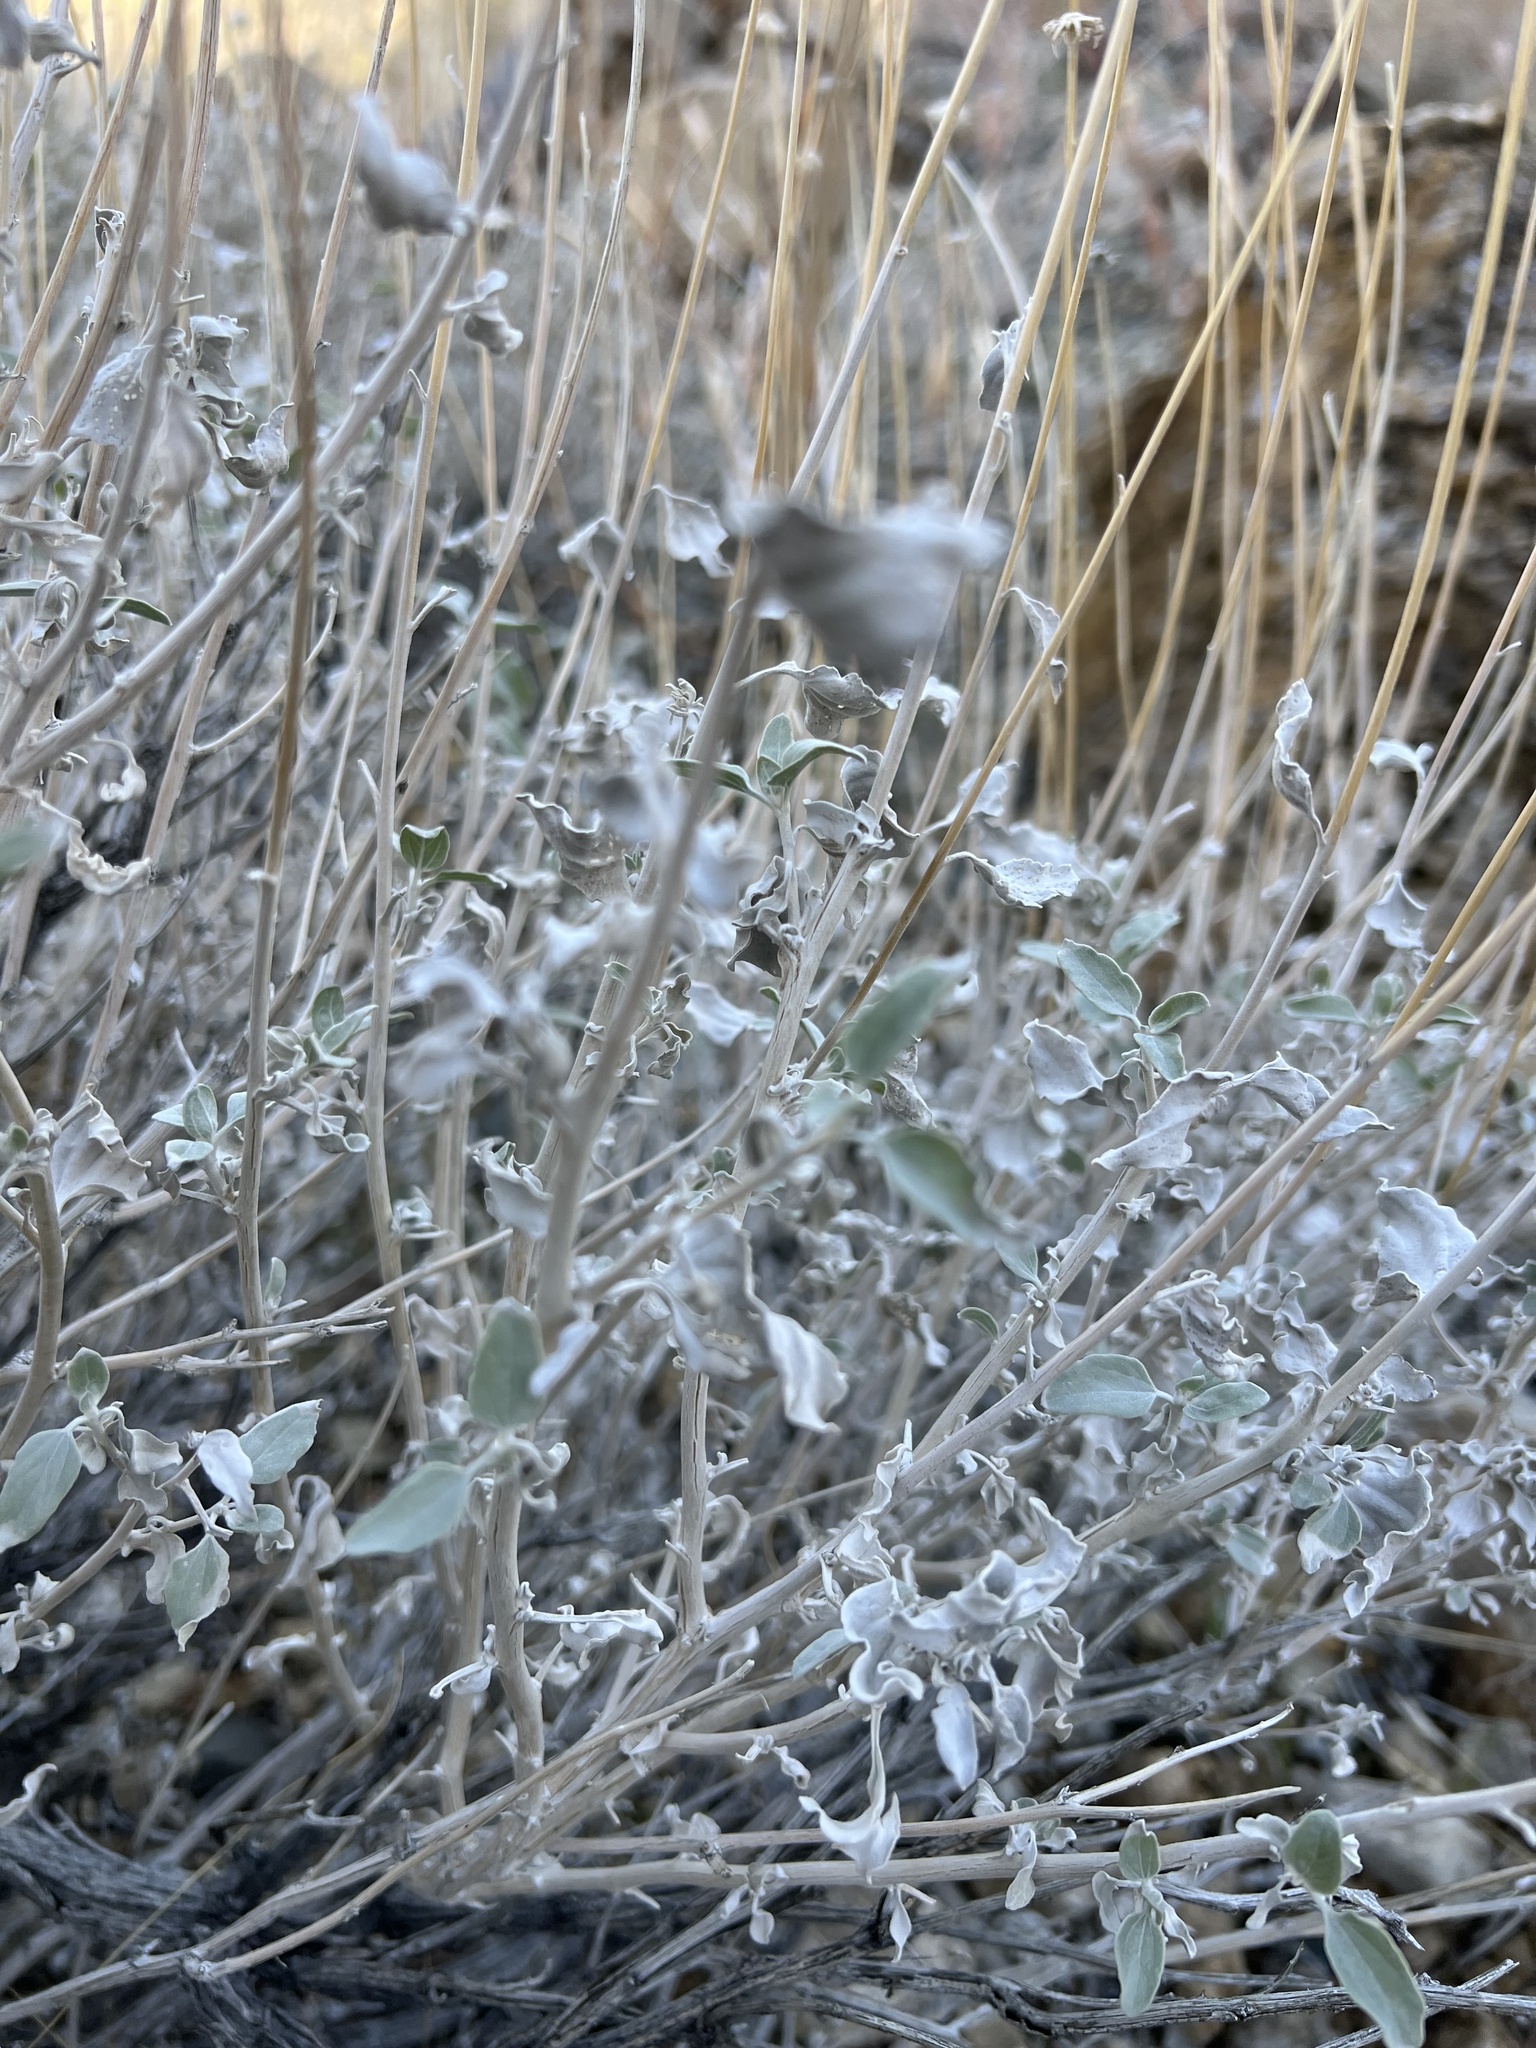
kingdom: Plantae
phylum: Tracheophyta
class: Magnoliopsida
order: Asterales
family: Asteraceae
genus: Encelia
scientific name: Encelia actoni
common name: Acton encelia
